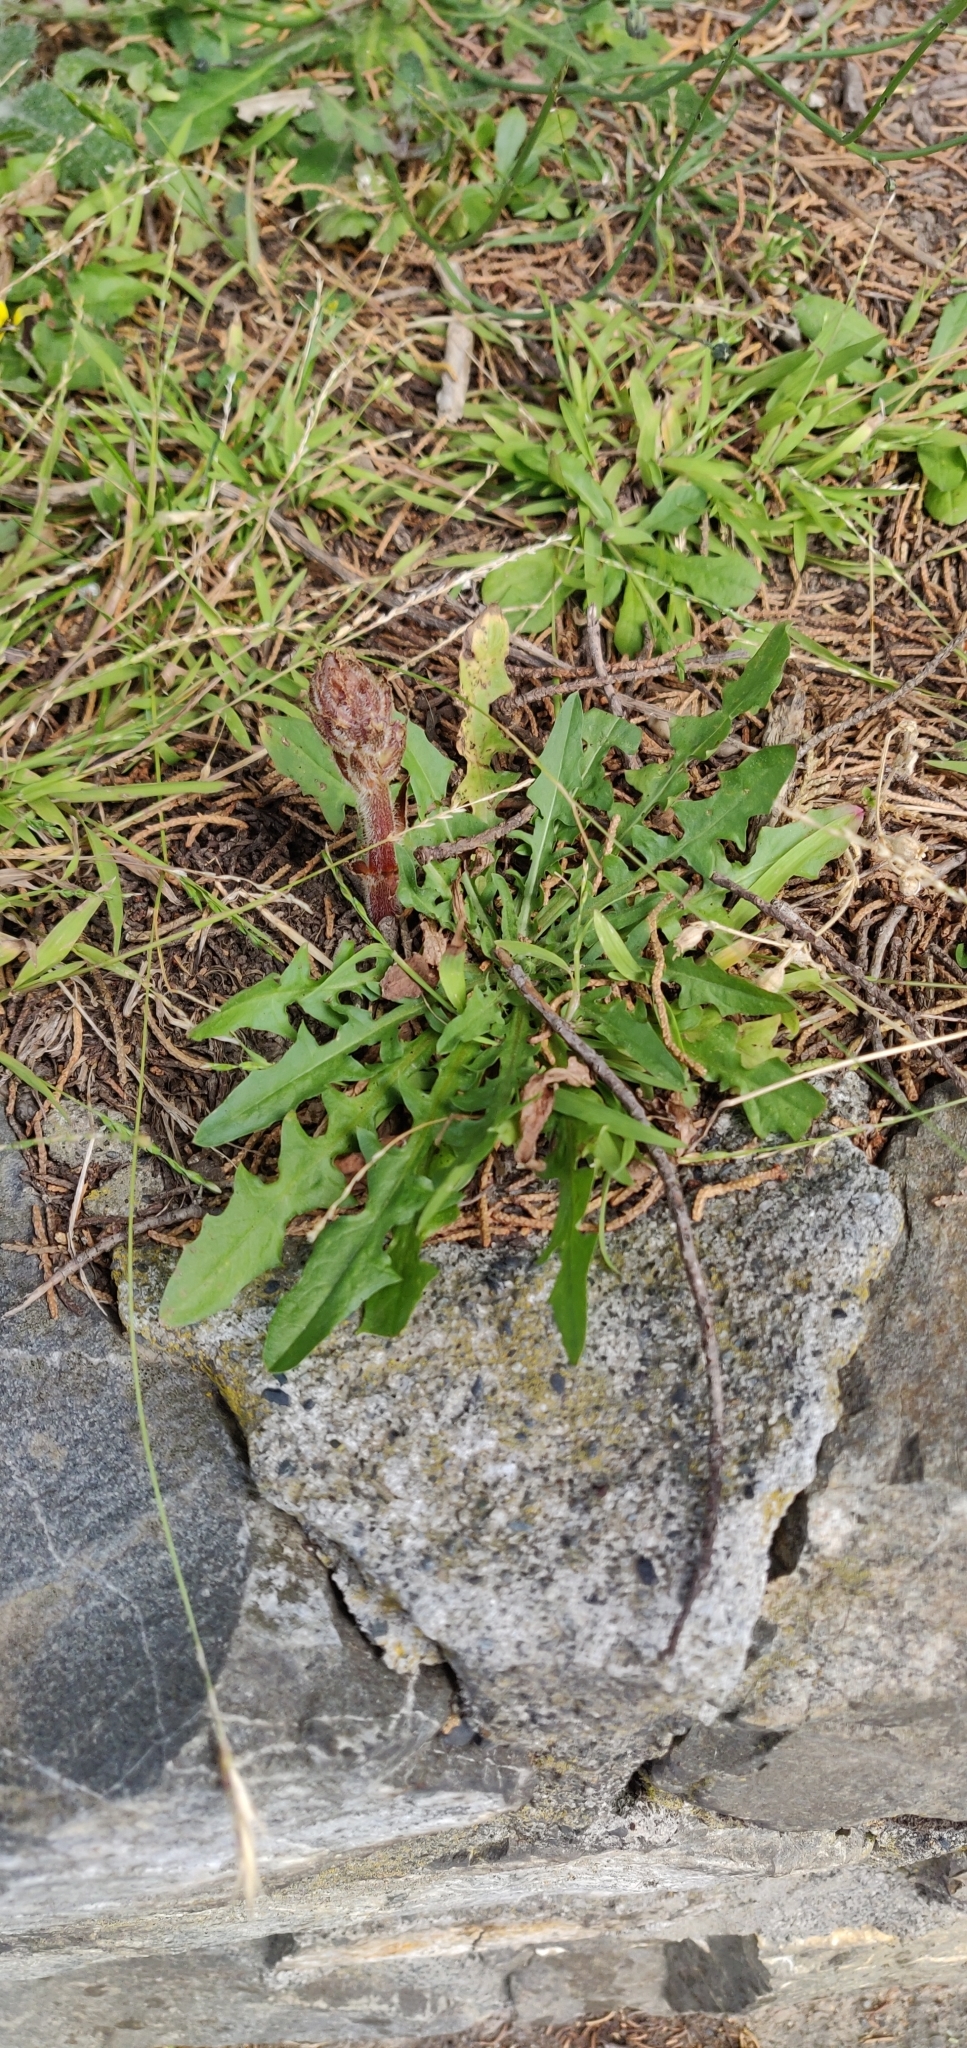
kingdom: Plantae
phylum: Tracheophyta
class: Magnoliopsida
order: Asterales
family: Asteraceae
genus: Taraxacum
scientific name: Taraxacum officinale
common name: Common dandelion
